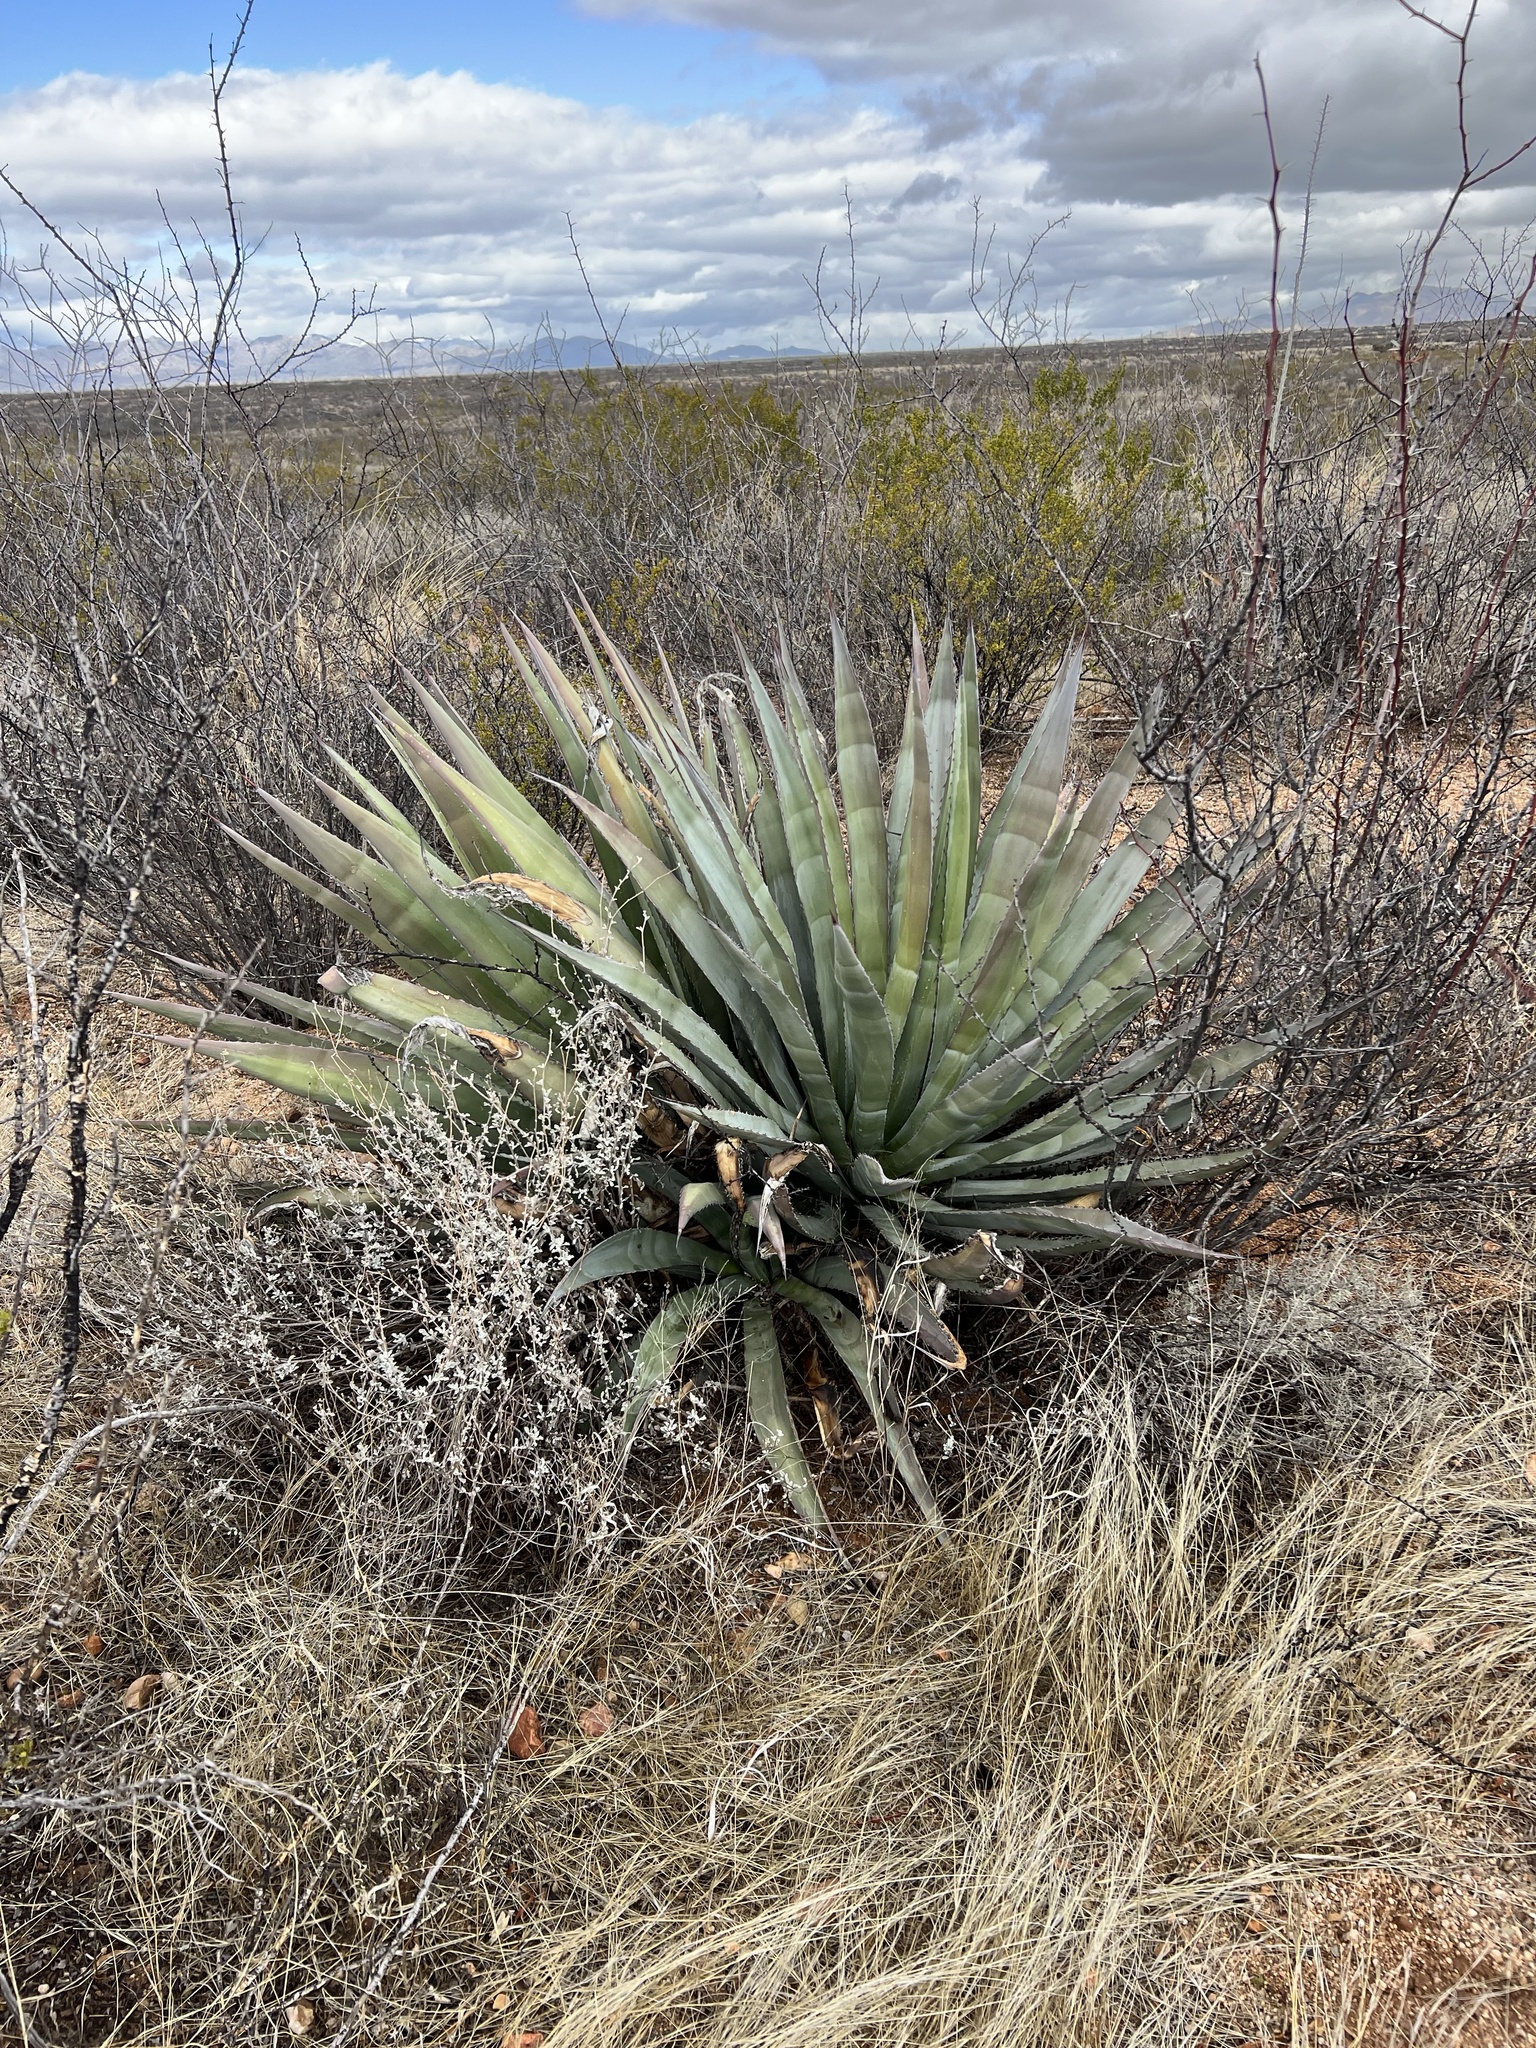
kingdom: Plantae
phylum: Tracheophyta
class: Liliopsida
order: Asparagales
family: Asparagaceae
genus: Agave
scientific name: Agave palmeri
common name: Palmer agave
